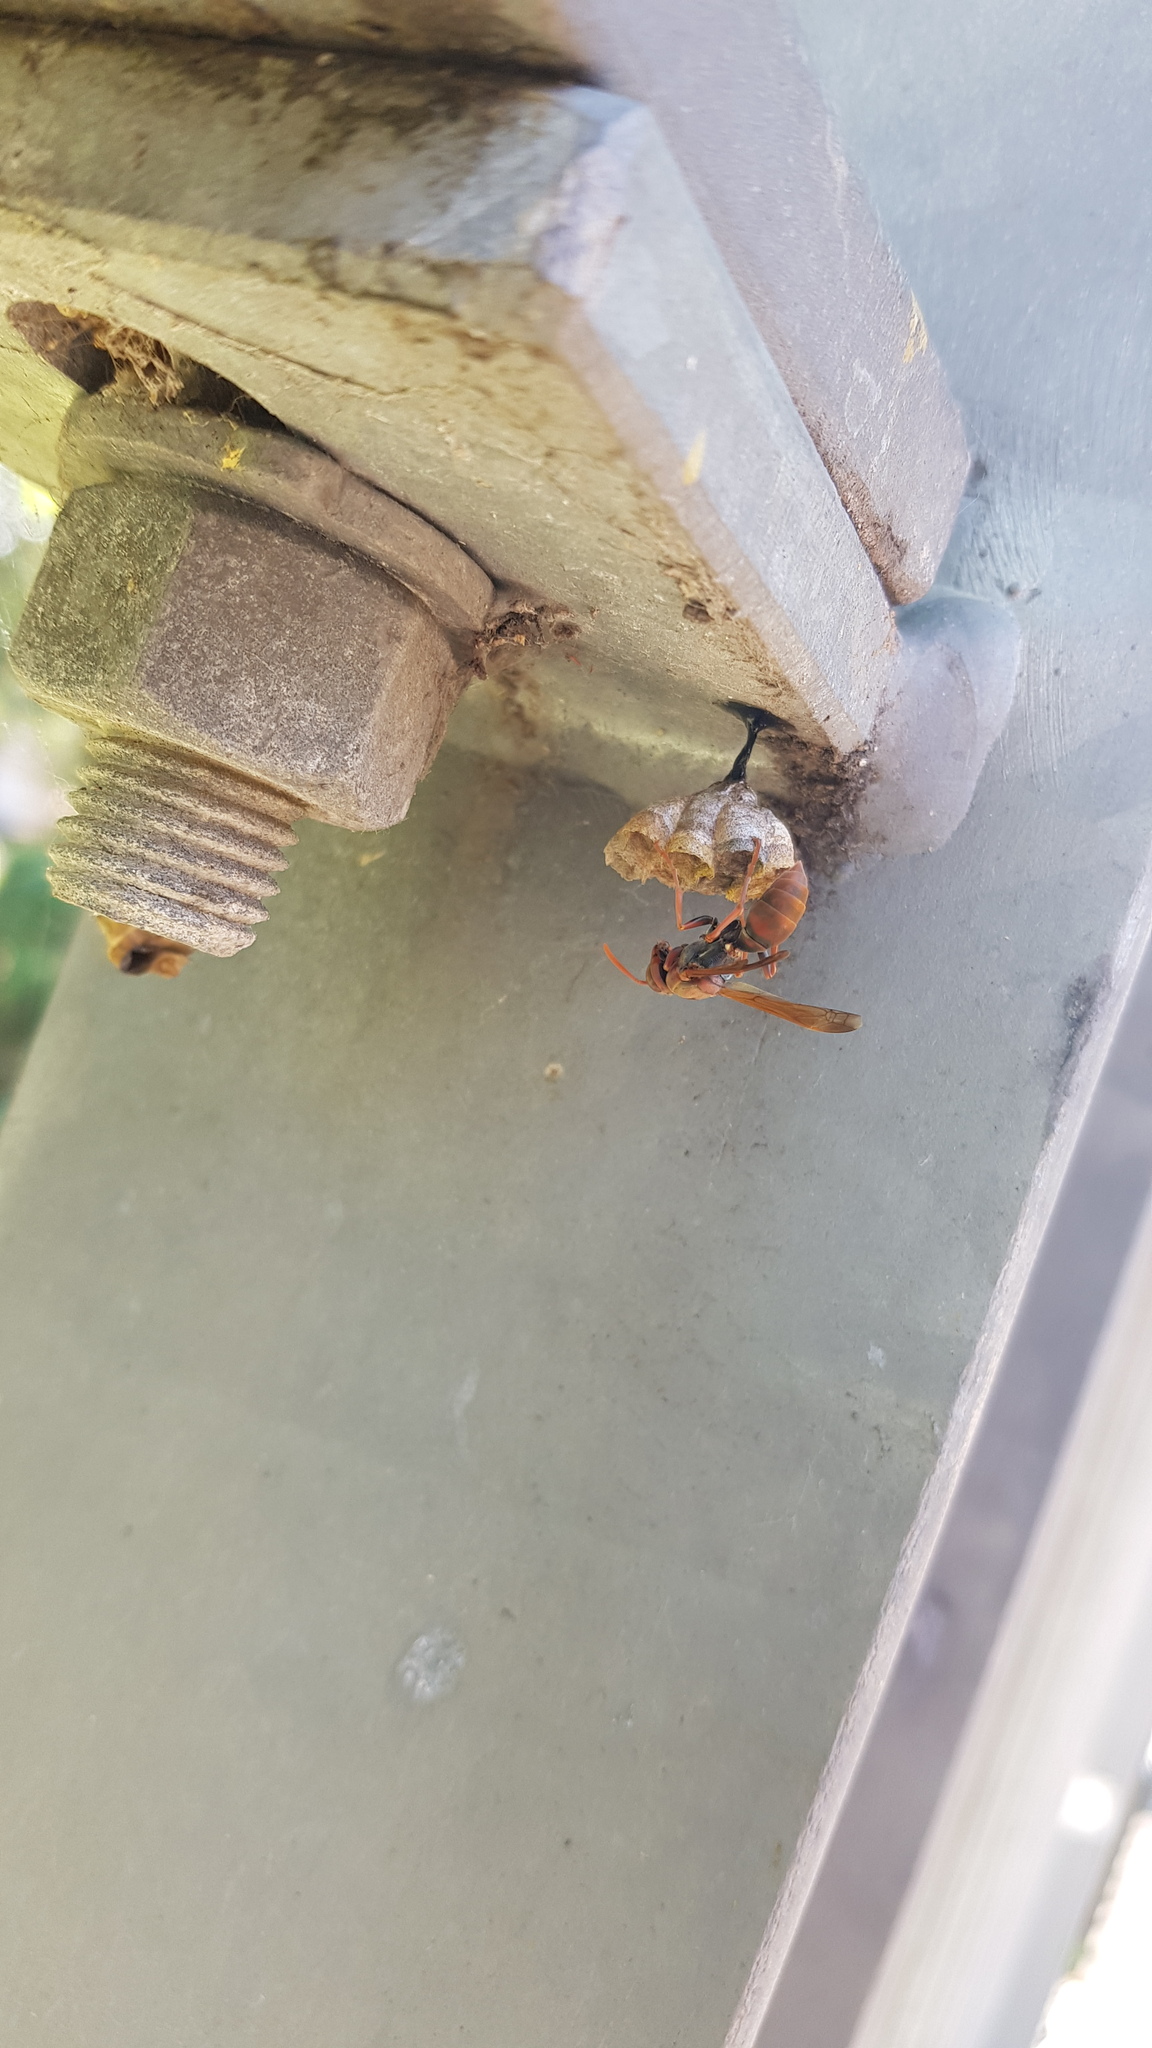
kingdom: Animalia
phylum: Arthropoda
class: Insecta
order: Hymenoptera
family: Eumenidae
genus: Polistes
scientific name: Polistes humilis
